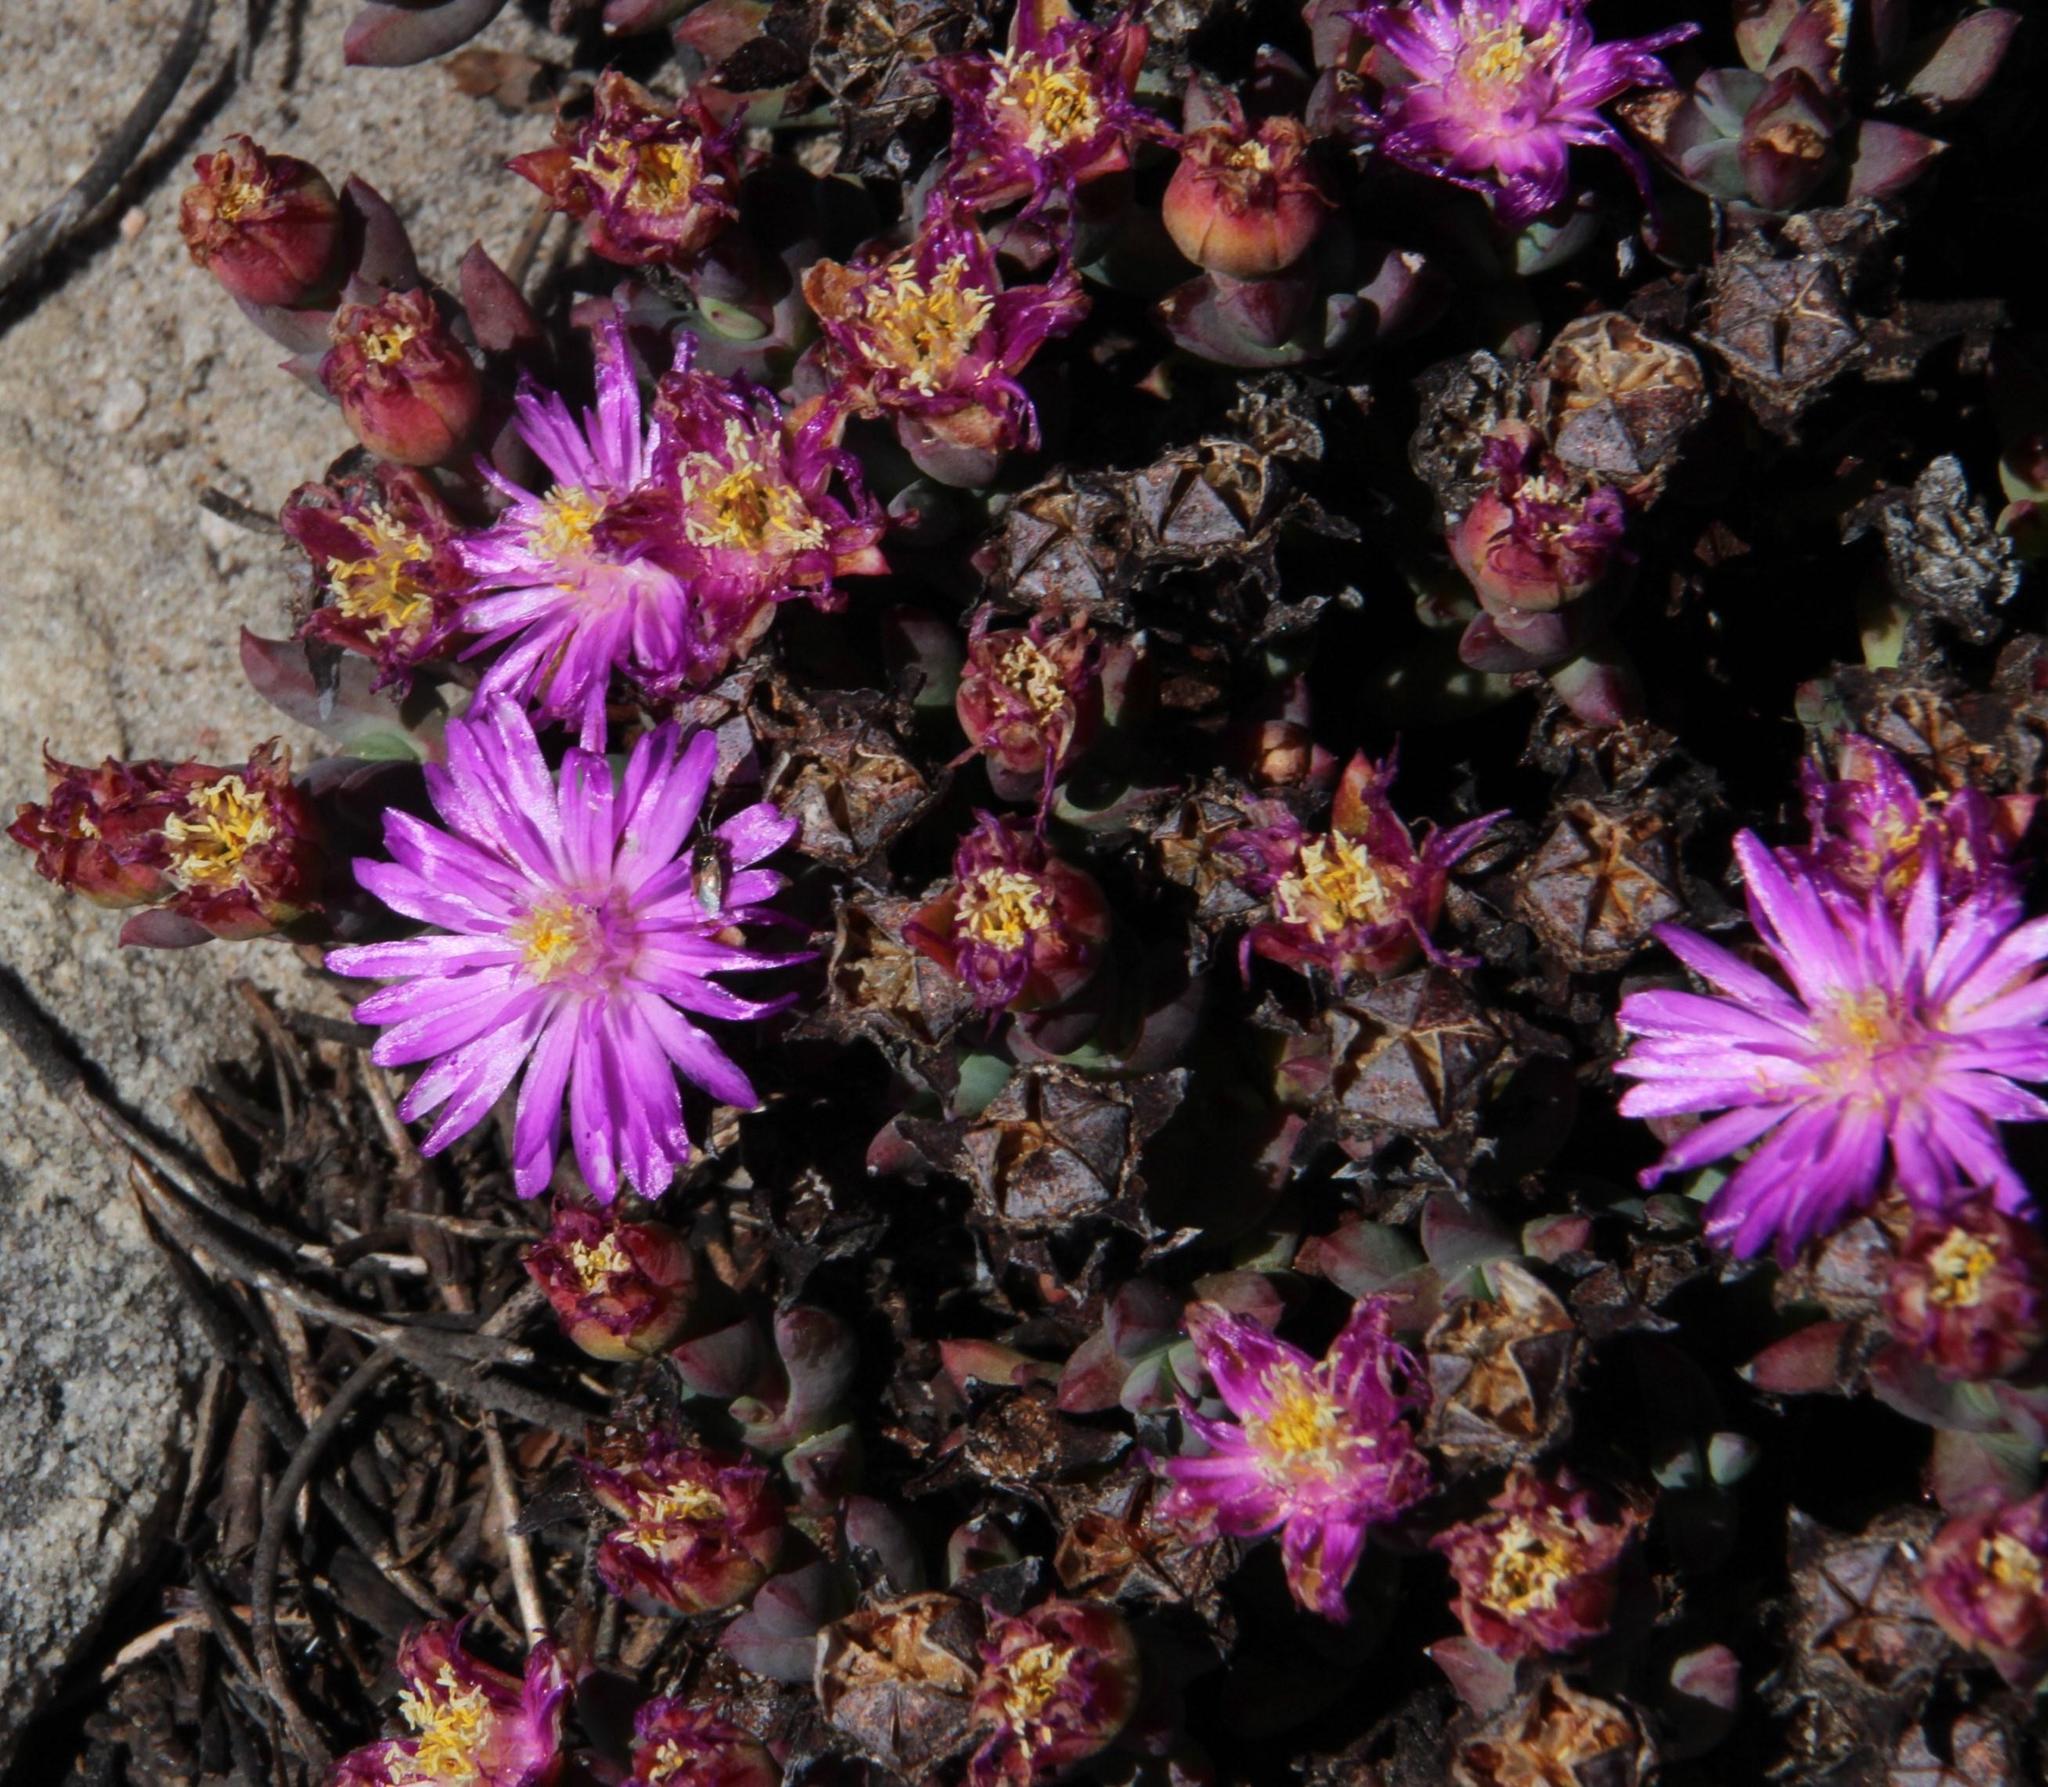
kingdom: Plantae
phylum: Tracheophyta
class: Magnoliopsida
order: Caryophyllales
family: Aizoaceae
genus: Esterhuysenia
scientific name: Esterhuysenia inclaudens
